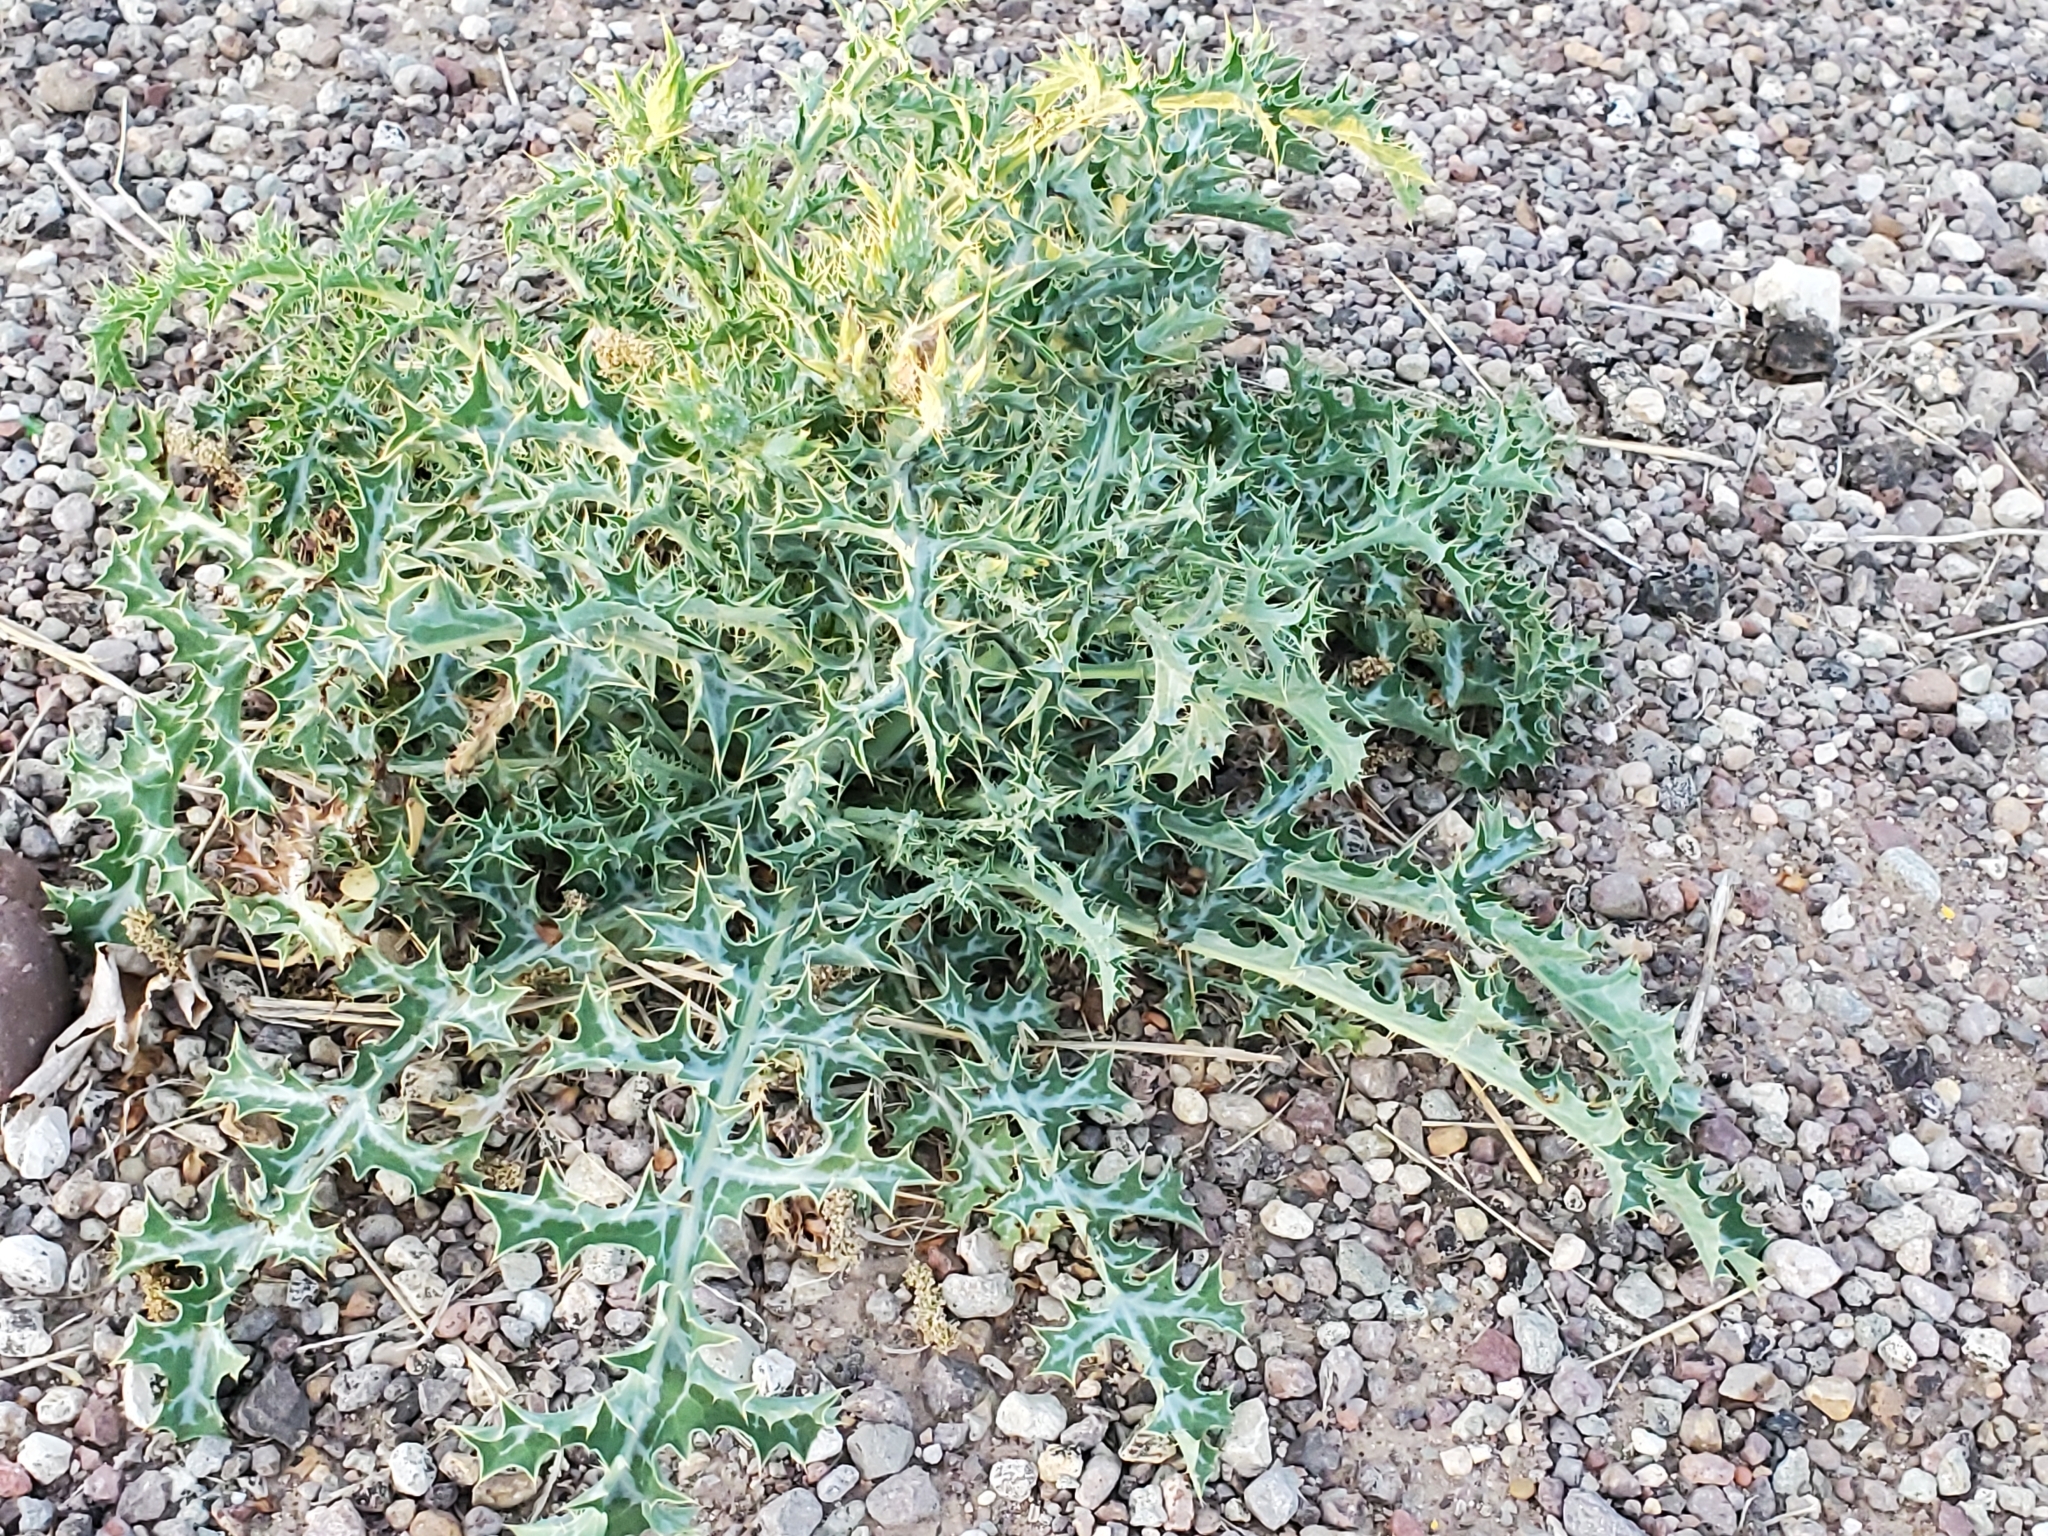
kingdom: Plantae
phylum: Tracheophyta
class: Magnoliopsida
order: Ranunculales
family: Papaveraceae
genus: Argemone
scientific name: Argemone albiflora
